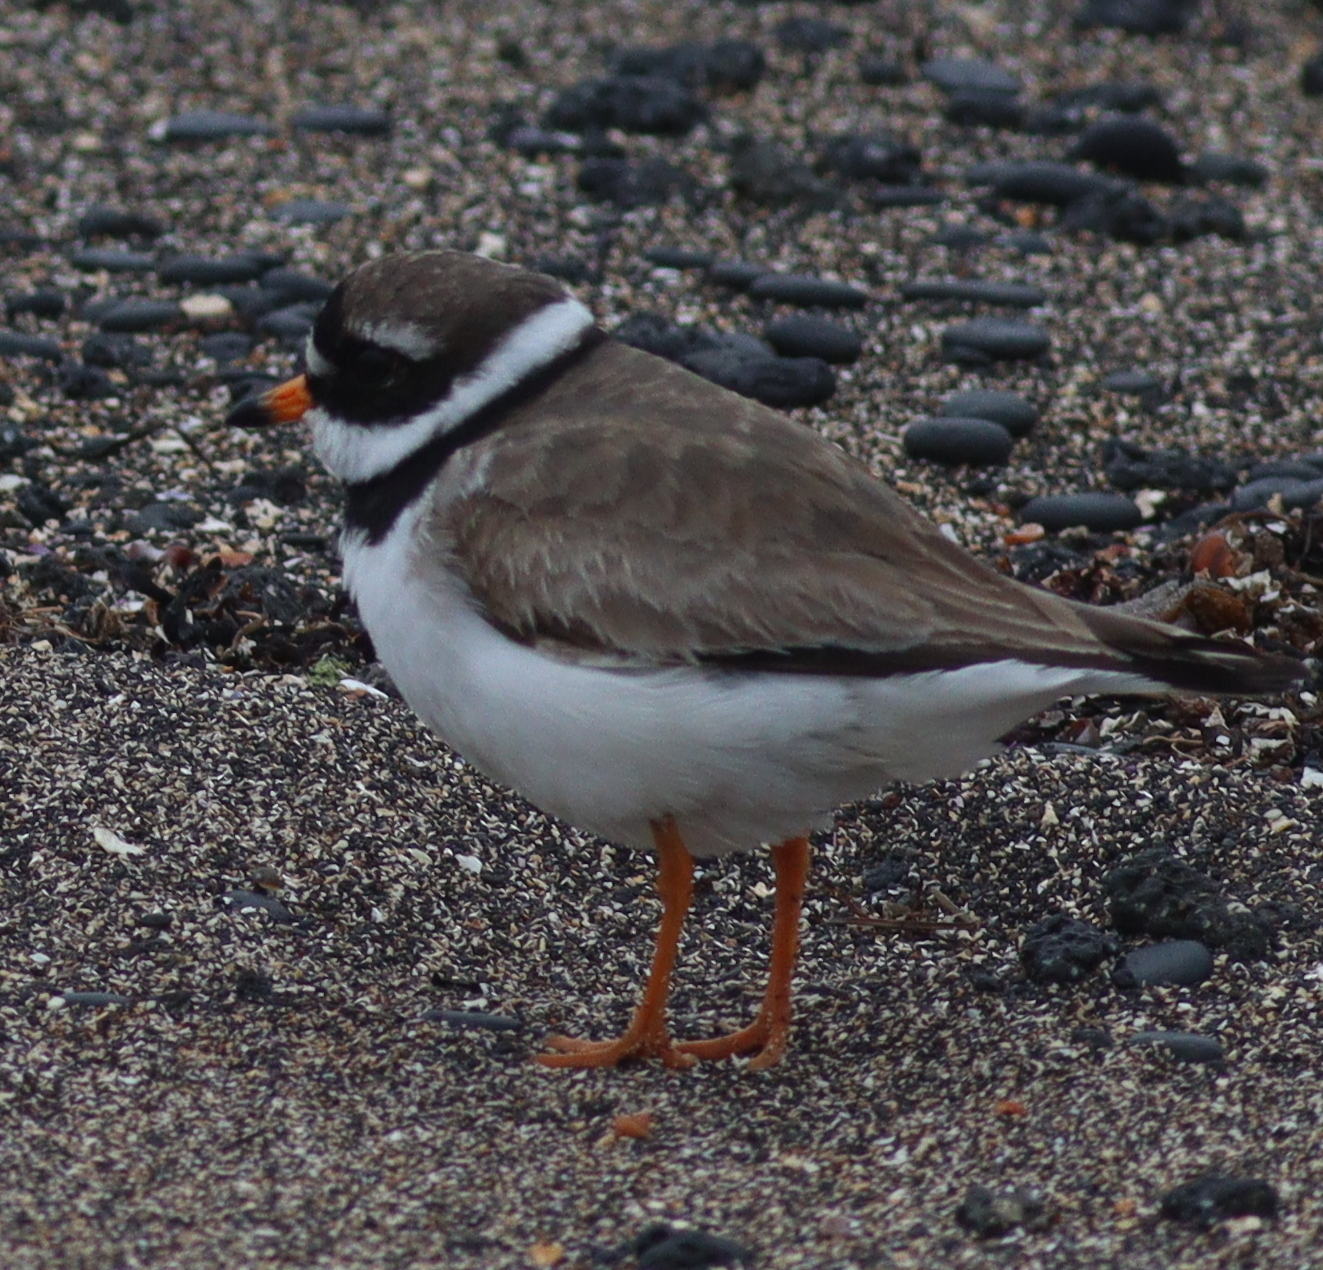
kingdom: Animalia
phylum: Chordata
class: Aves
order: Charadriiformes
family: Charadriidae
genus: Charadrius
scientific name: Charadrius hiaticula
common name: Common ringed plover
